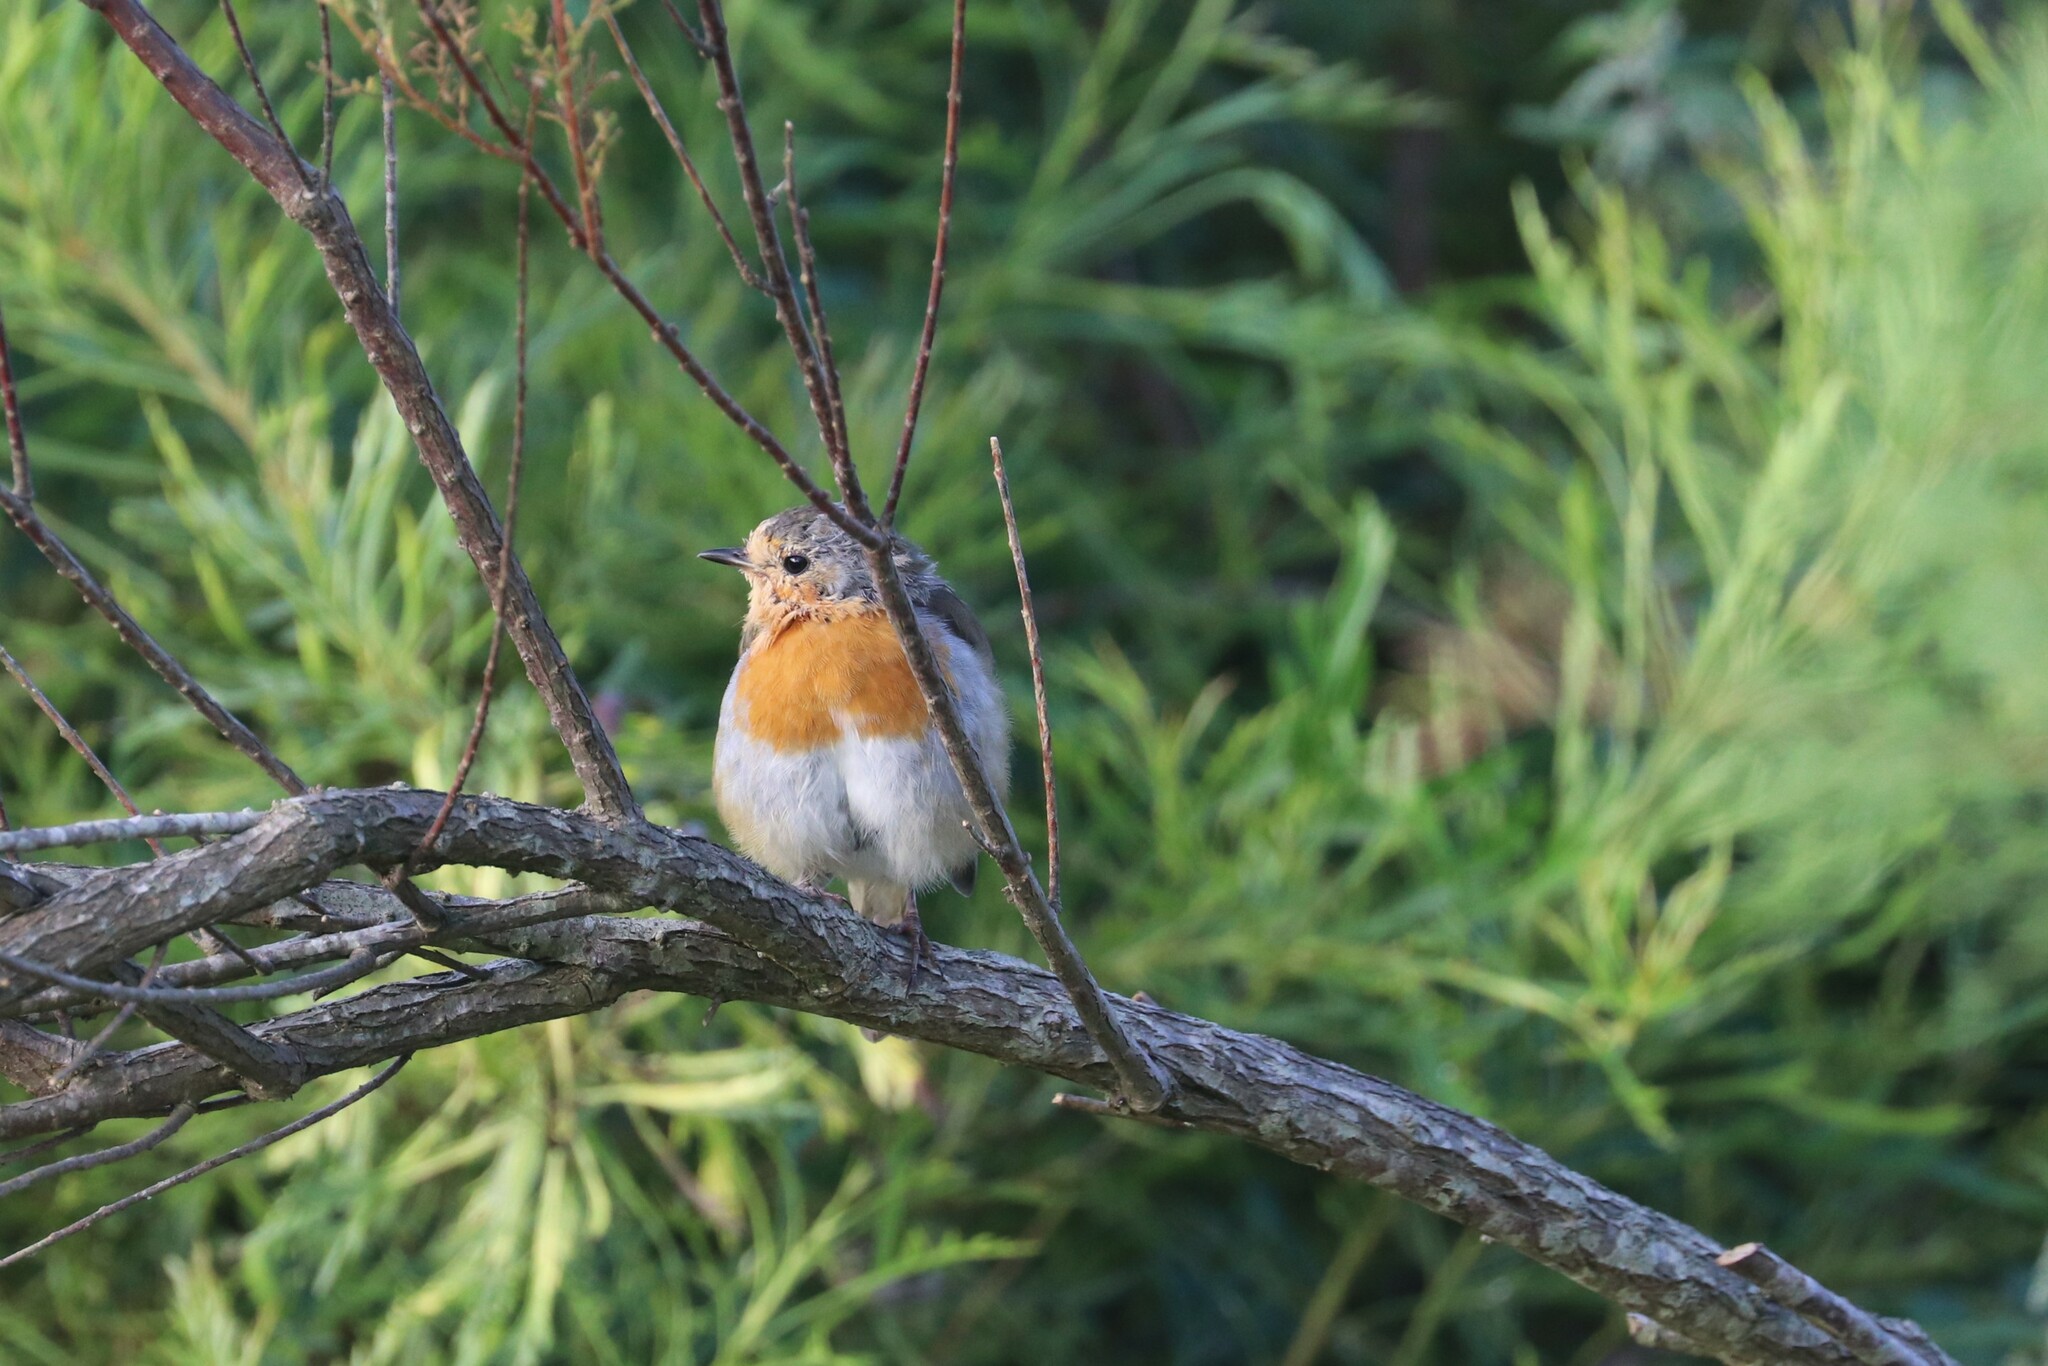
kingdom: Animalia
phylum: Chordata
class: Aves
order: Passeriformes
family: Muscicapidae
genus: Erithacus
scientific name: Erithacus rubecula
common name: European robin
